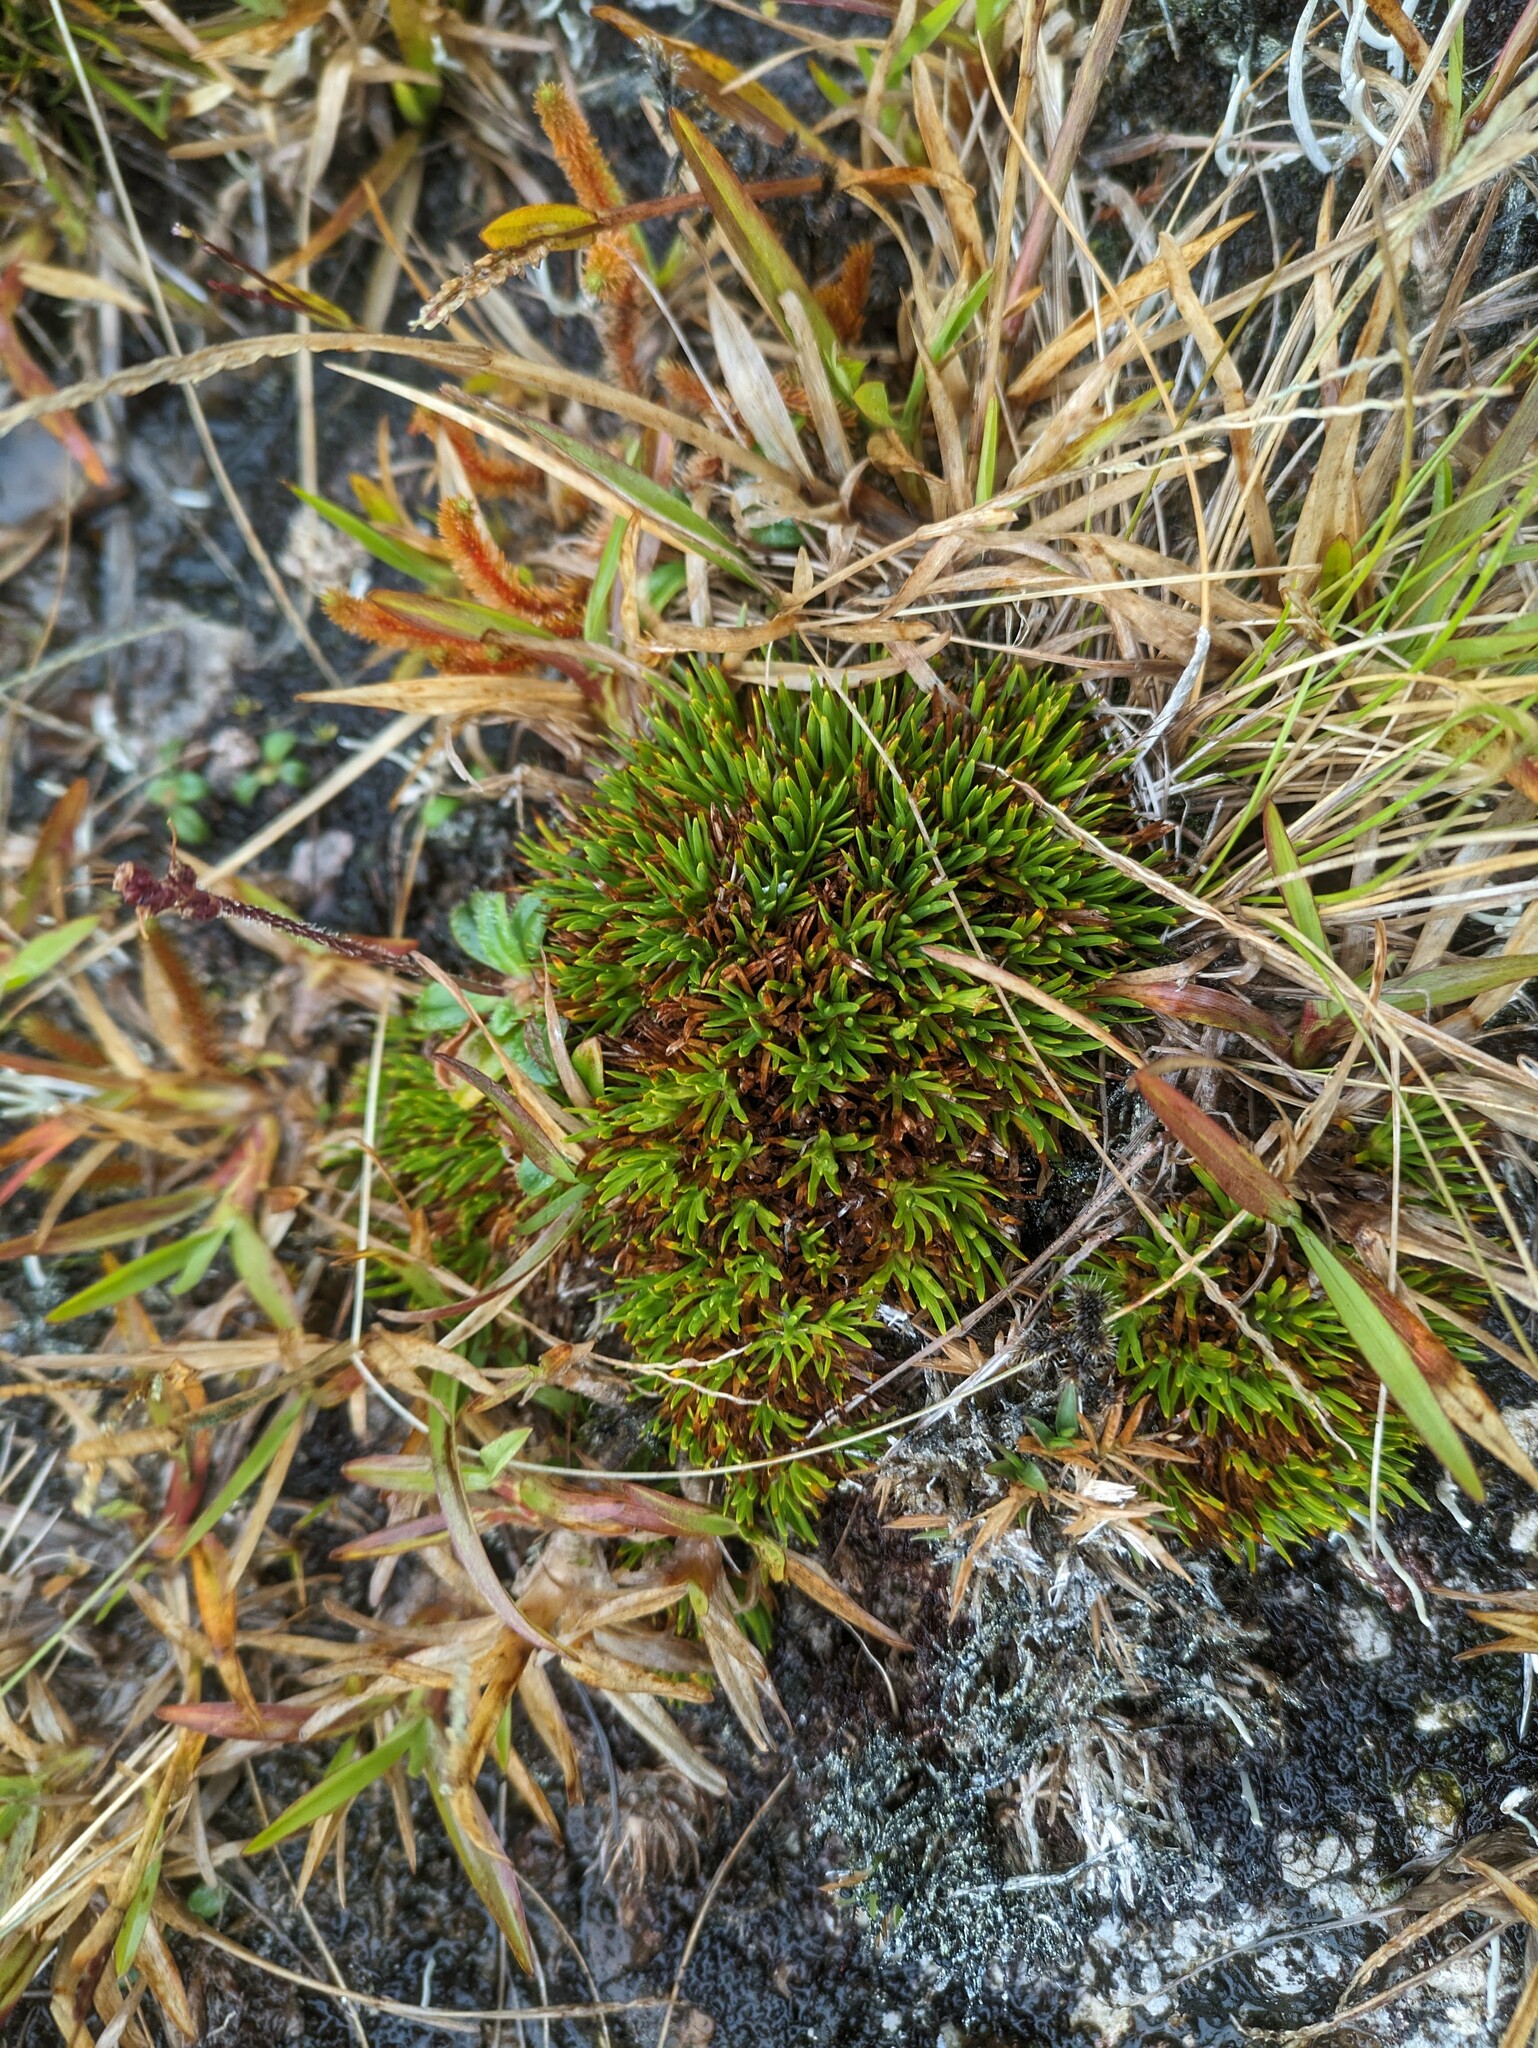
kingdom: Plantae
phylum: Tracheophyta
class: Liliopsida
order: Poales
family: Cyperaceae
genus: Oreobolus
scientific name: Oreobolus furcatus
